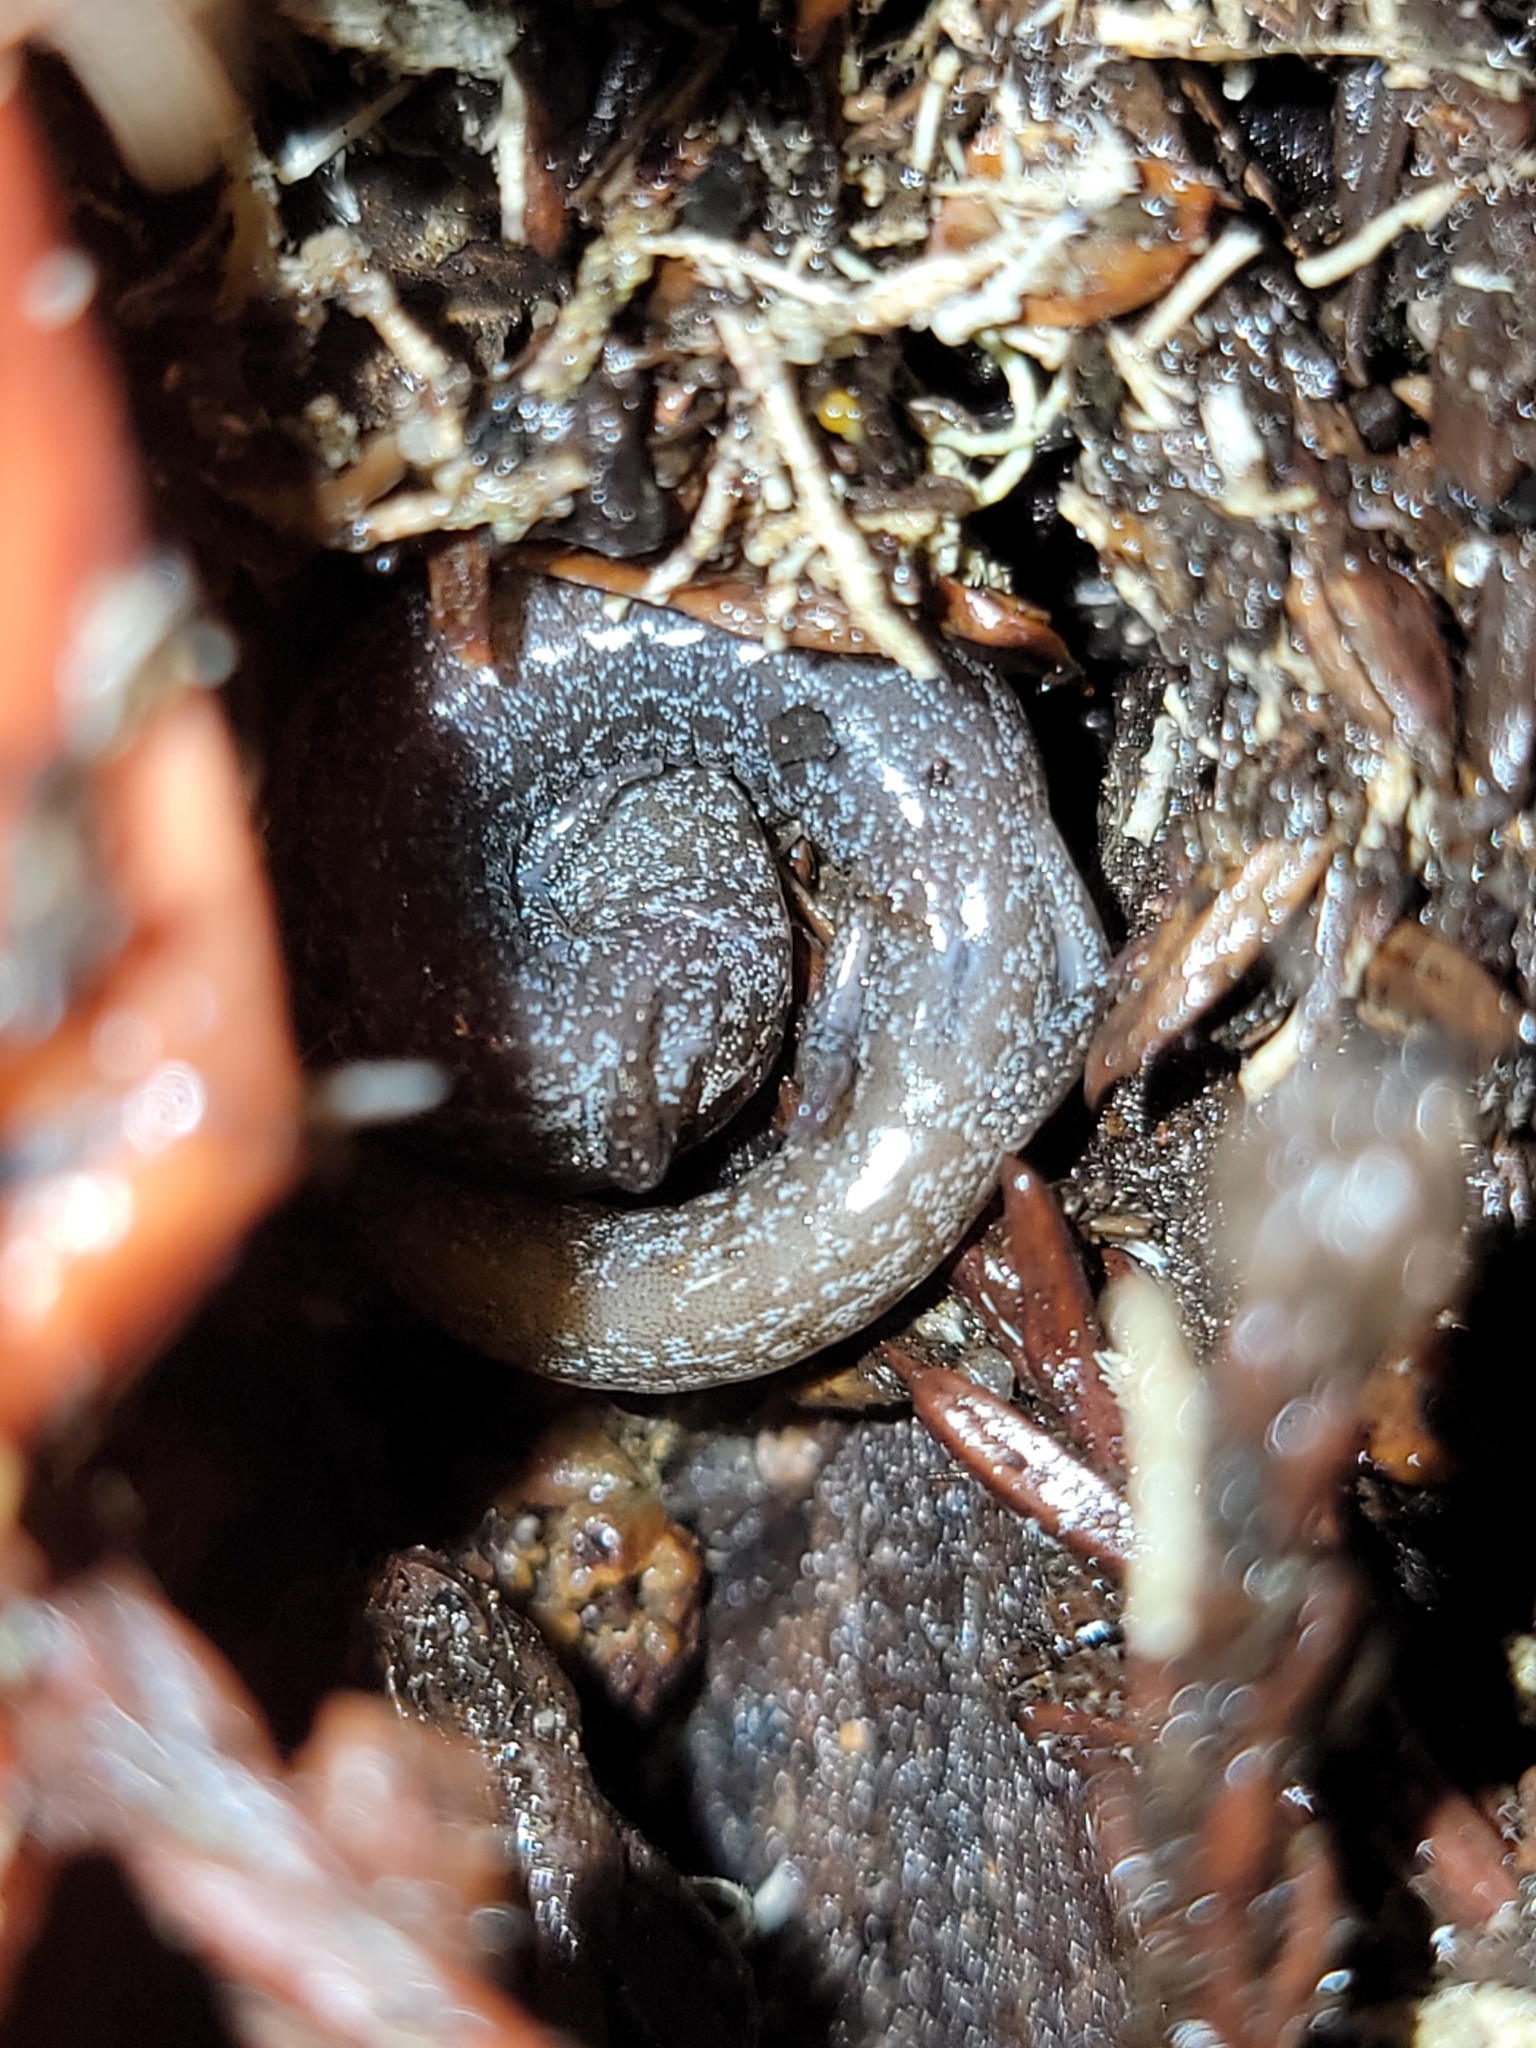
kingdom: Animalia
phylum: Chordata
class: Amphibia
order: Caudata
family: Plethodontidae
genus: Batrachoseps
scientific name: Batrachoseps attenuatus
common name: California slender salamander
